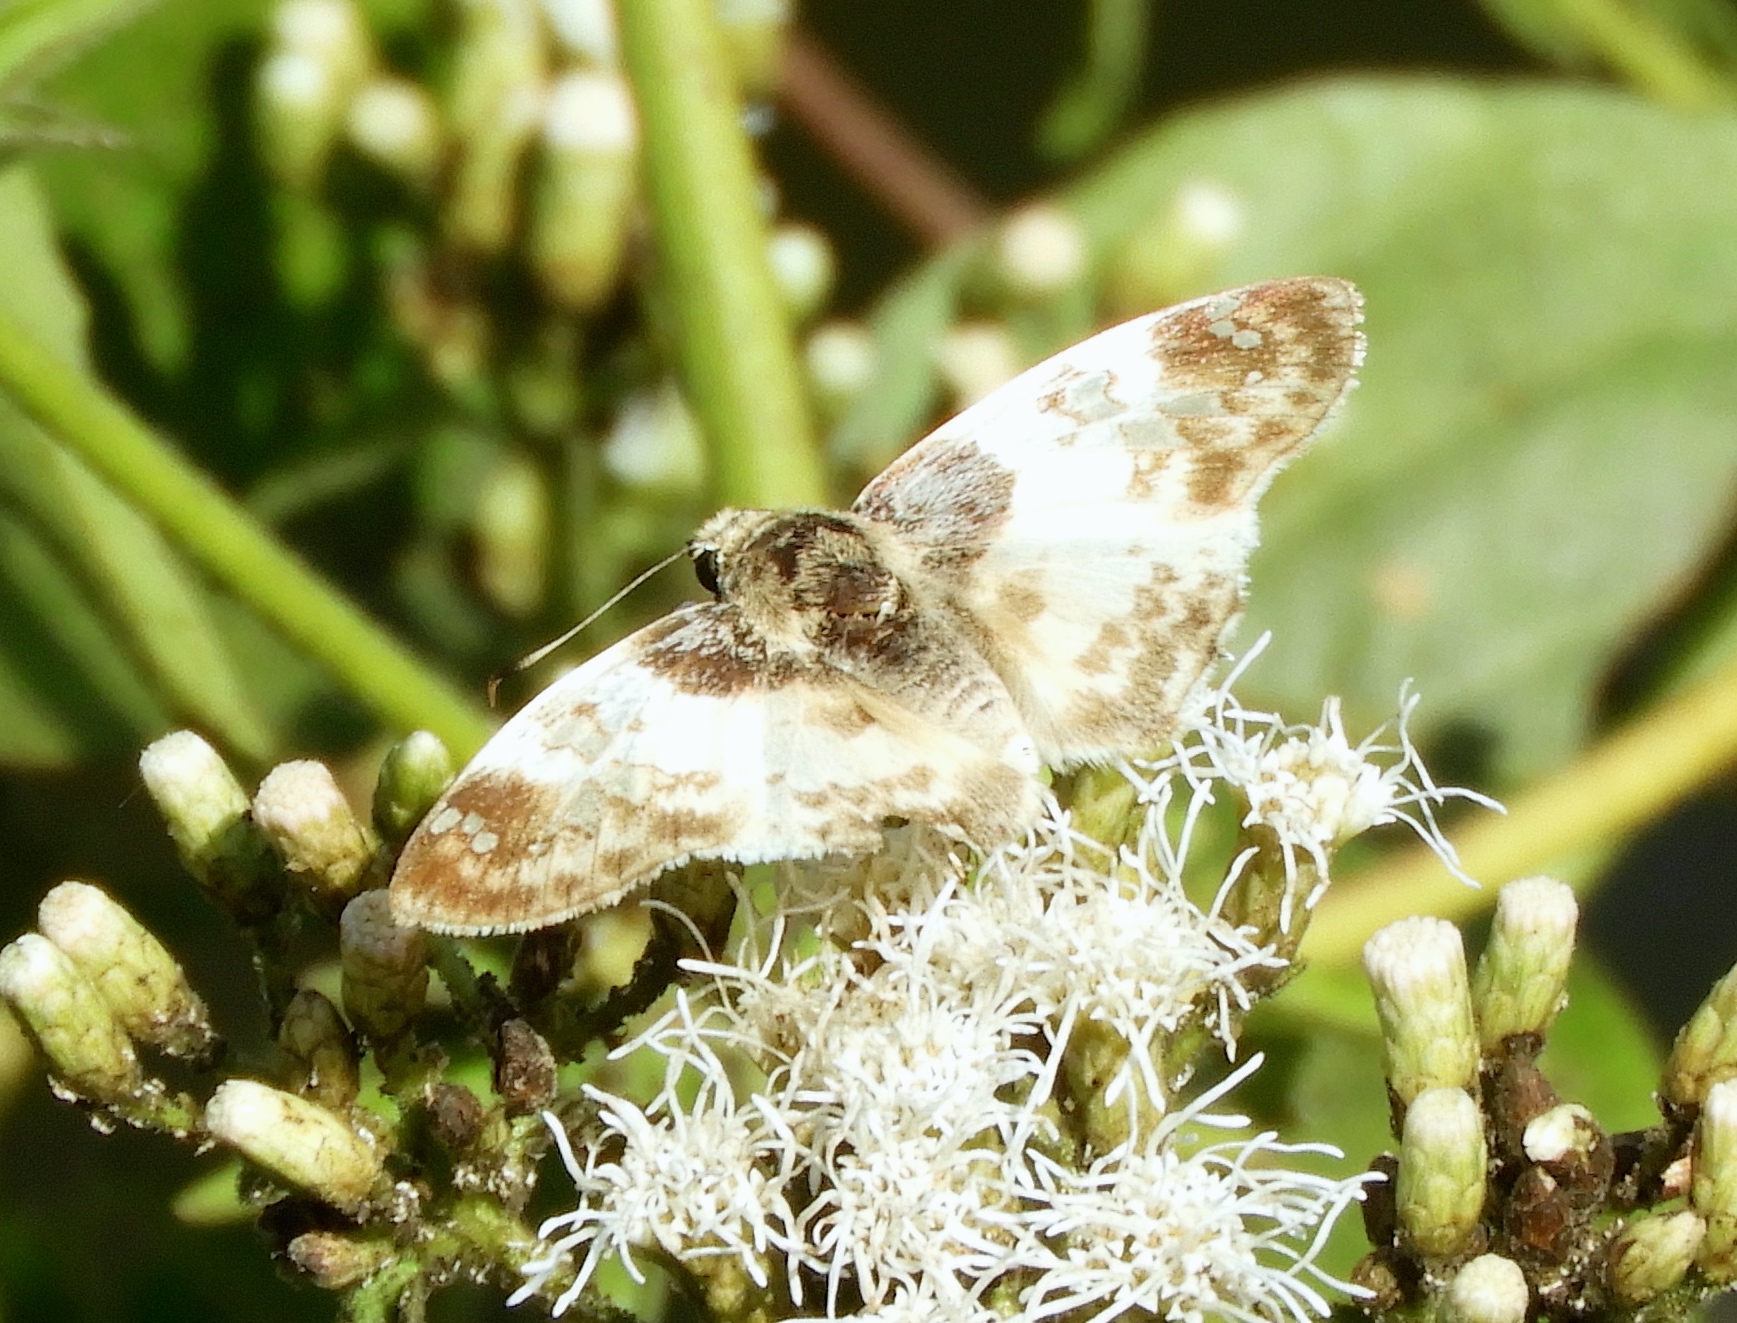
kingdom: Animalia
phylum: Arthropoda
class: Insecta
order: Lepidoptera
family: Hesperiidae
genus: Polyctor
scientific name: Polyctor cleta
